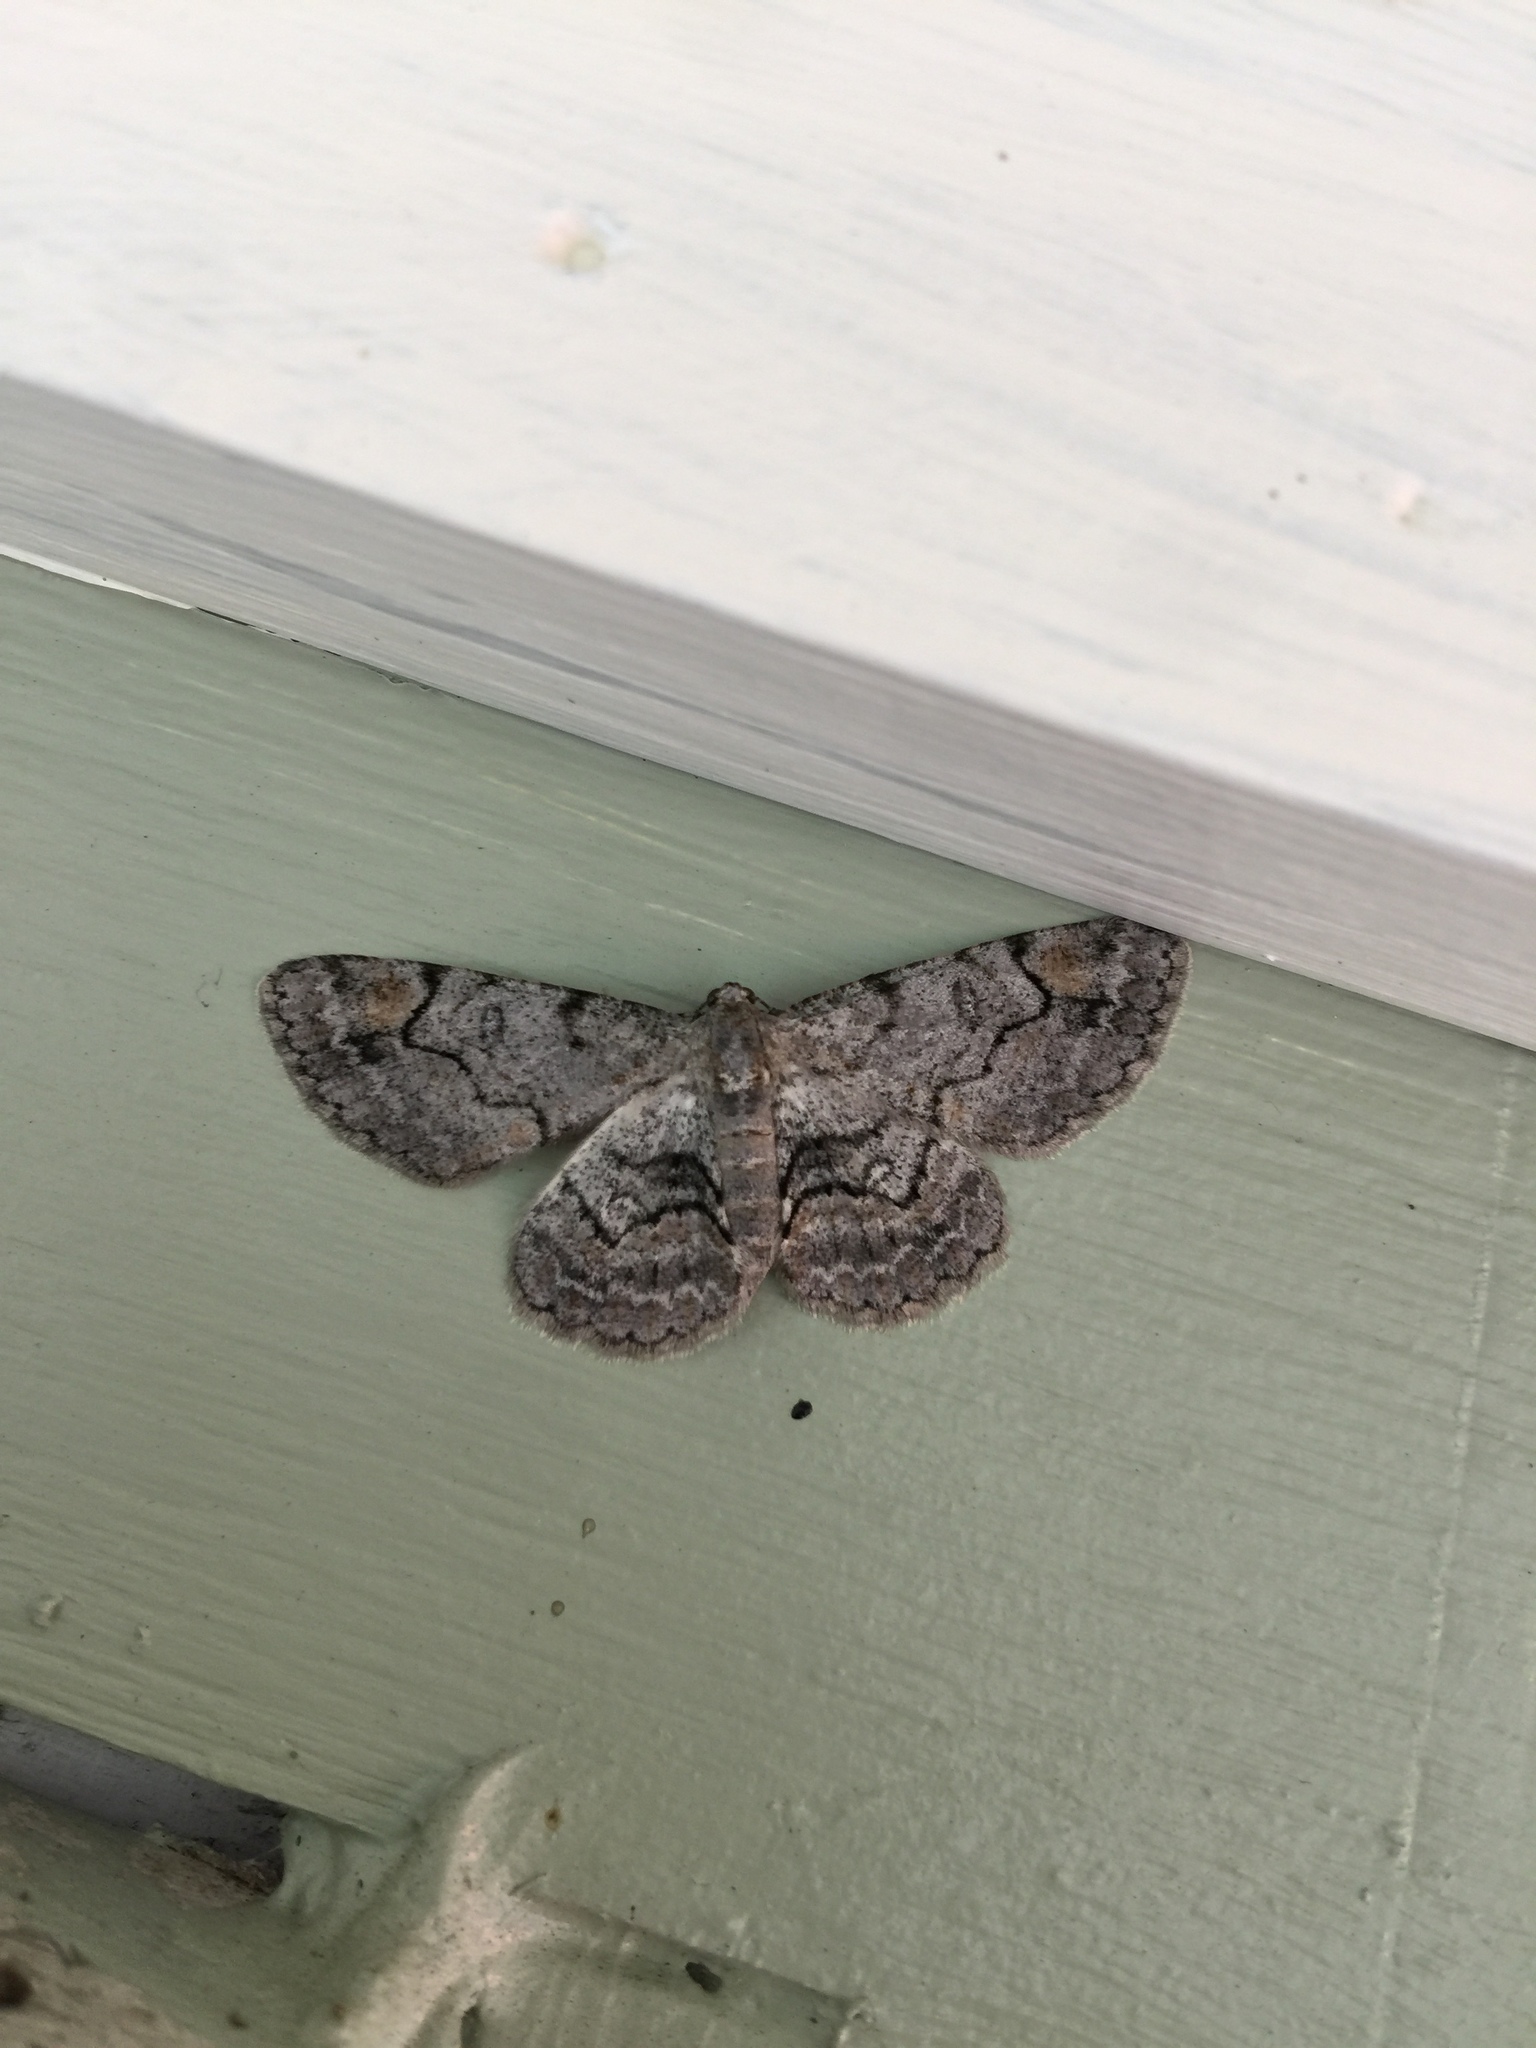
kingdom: Animalia
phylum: Arthropoda
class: Insecta
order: Lepidoptera
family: Geometridae
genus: Iridopsis
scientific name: Iridopsis larvaria
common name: Bent-line gray
